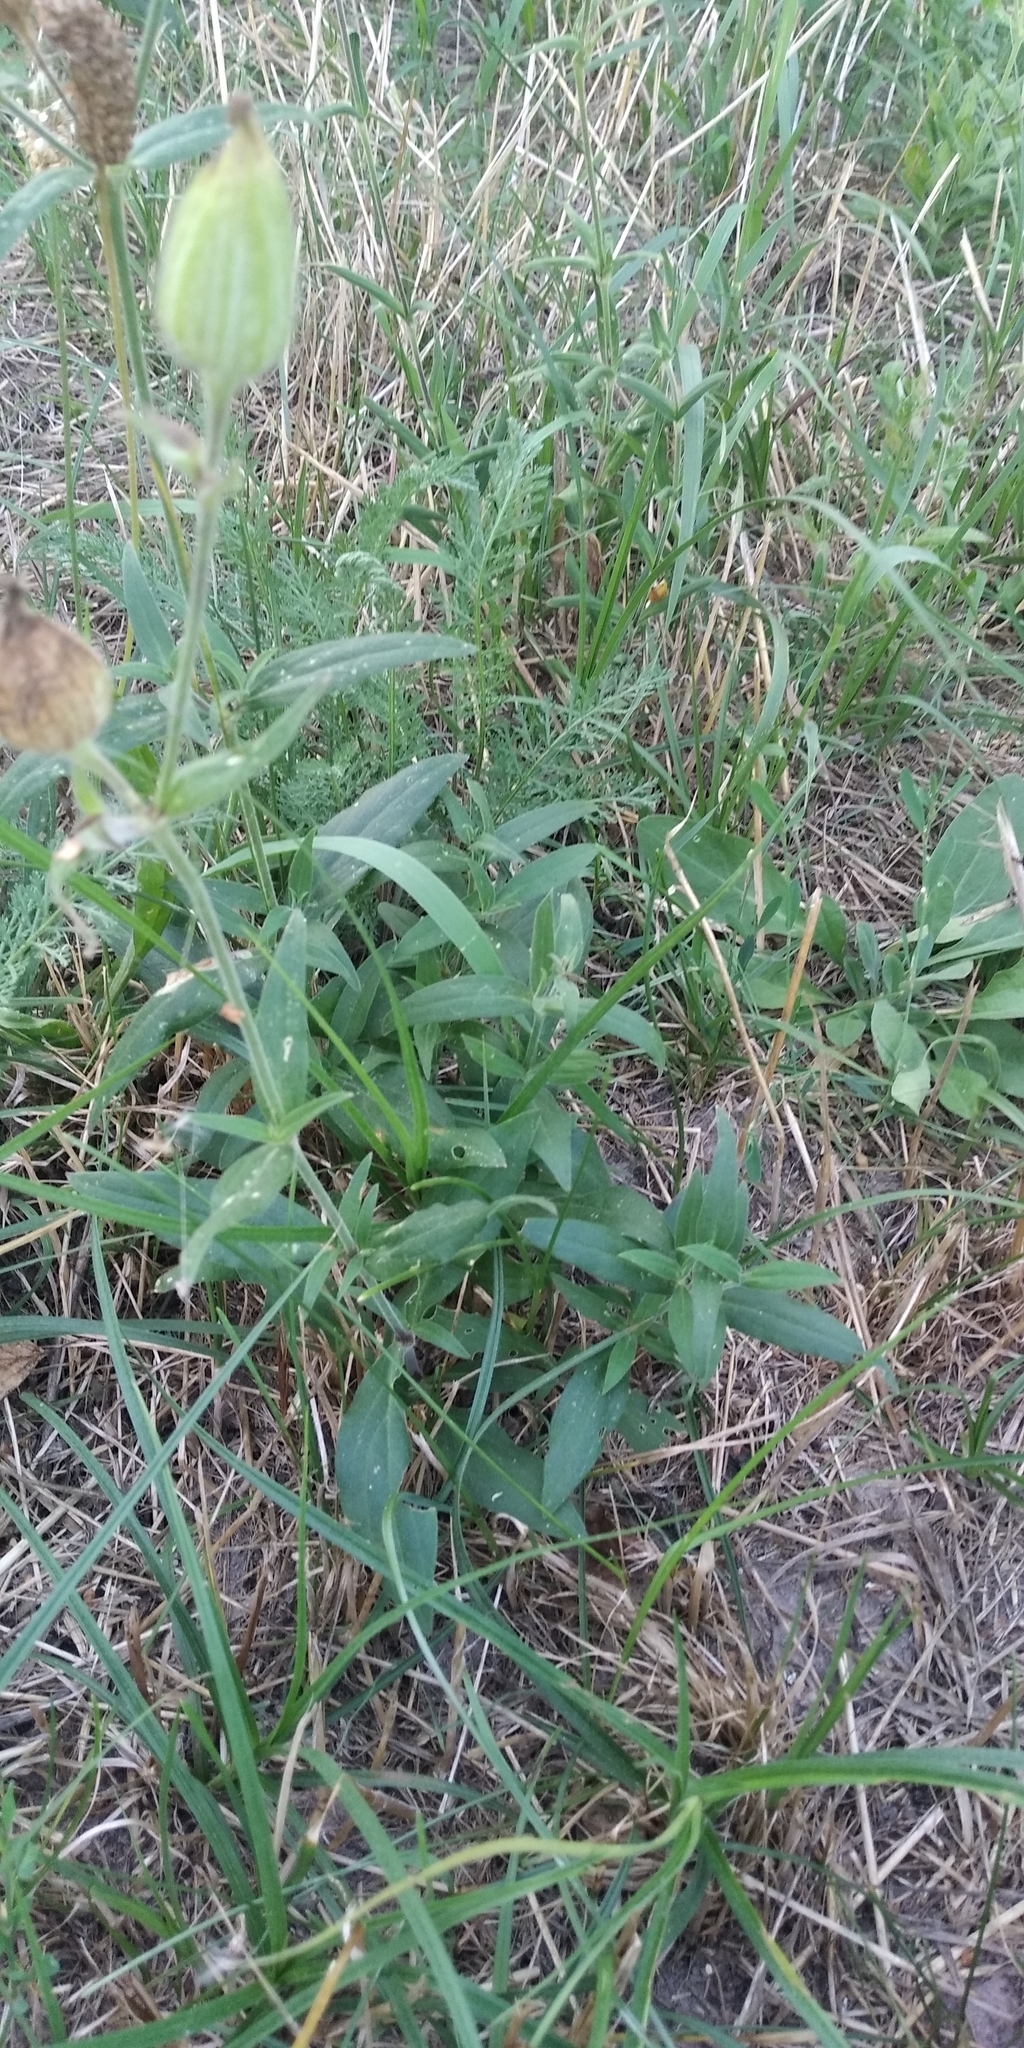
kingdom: Plantae
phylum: Tracheophyta
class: Magnoliopsida
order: Caryophyllales
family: Caryophyllaceae
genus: Silene
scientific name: Silene latifolia
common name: White campion
